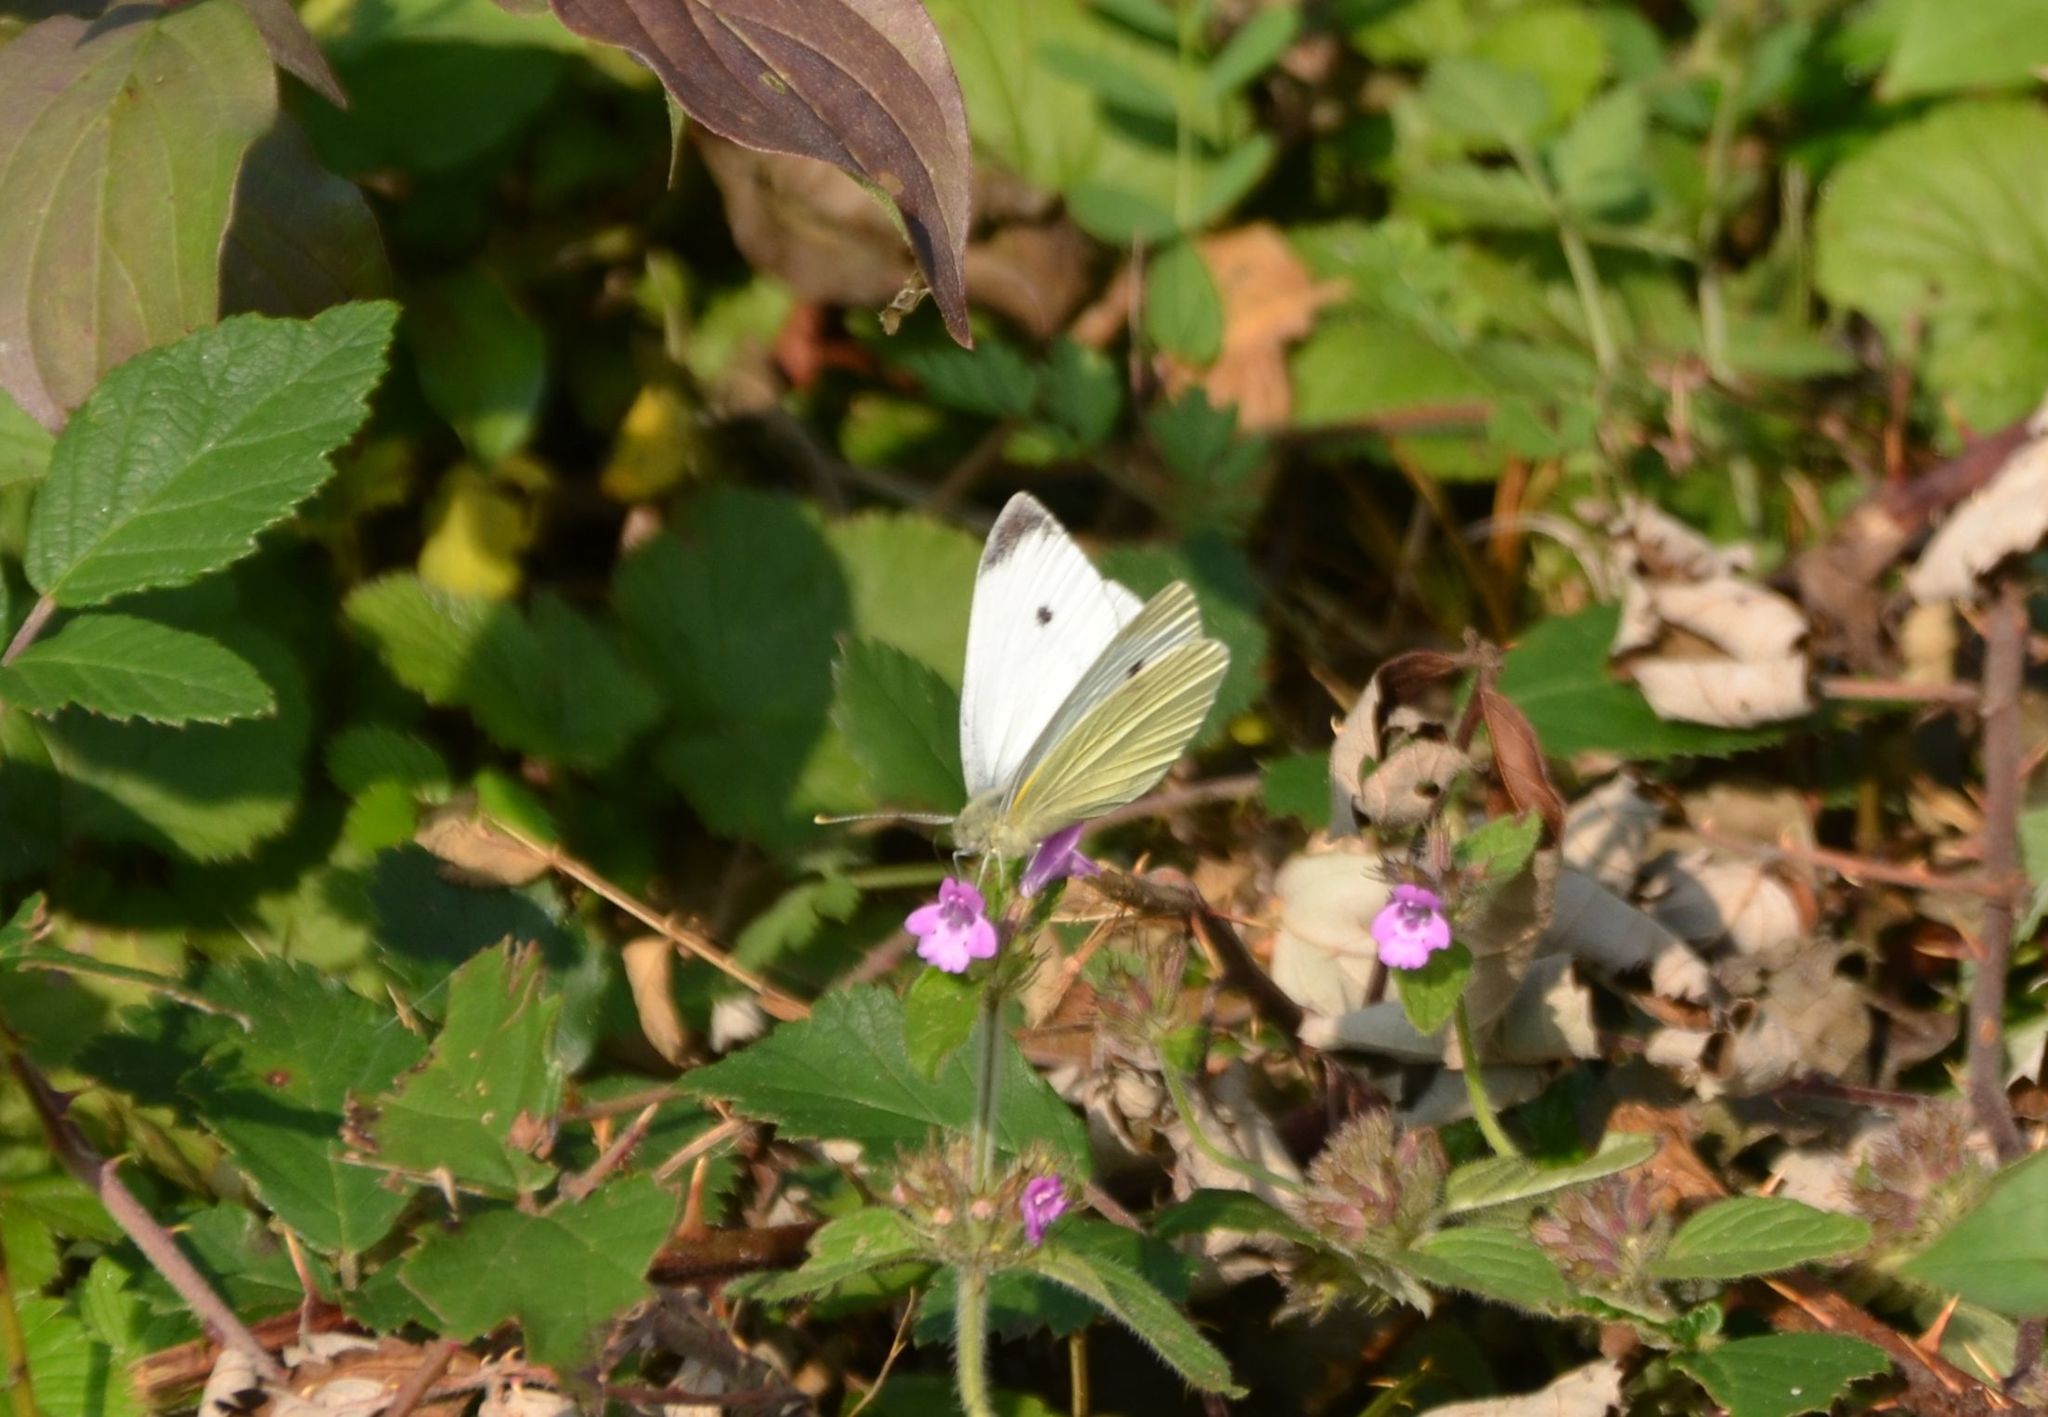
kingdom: Animalia
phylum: Arthropoda
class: Insecta
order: Lepidoptera
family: Pieridae
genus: Pieris
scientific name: Pieris rapae
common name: Small white
